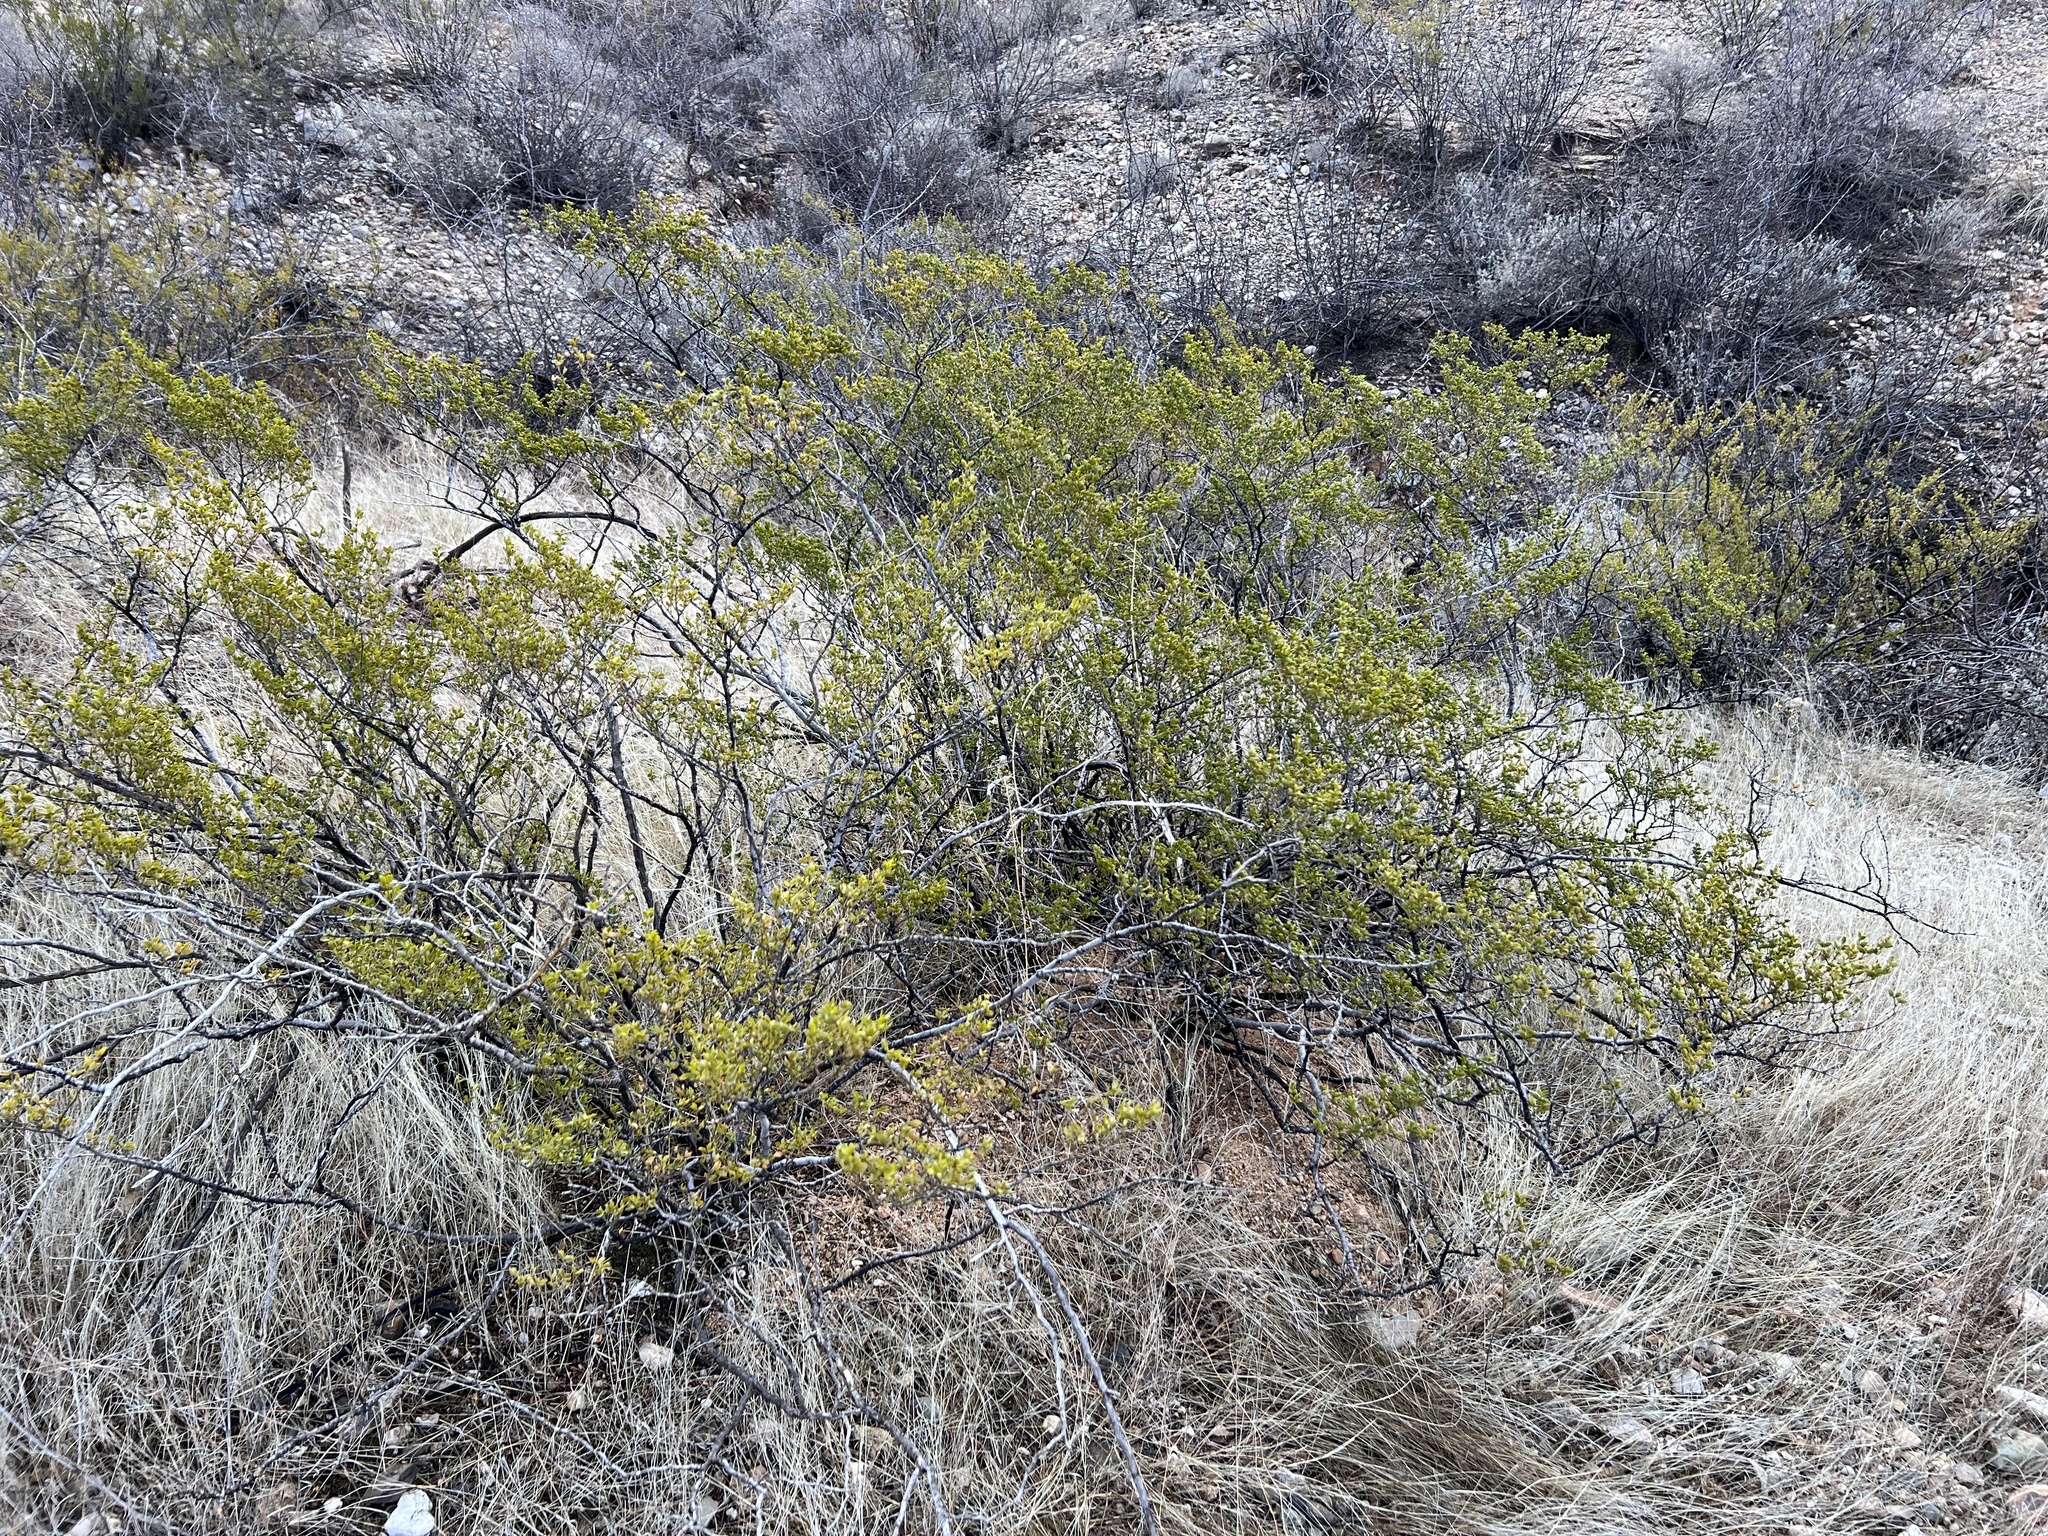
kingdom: Plantae
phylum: Tracheophyta
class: Magnoliopsida
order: Zygophyllales
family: Zygophyllaceae
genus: Larrea
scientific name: Larrea tridentata
